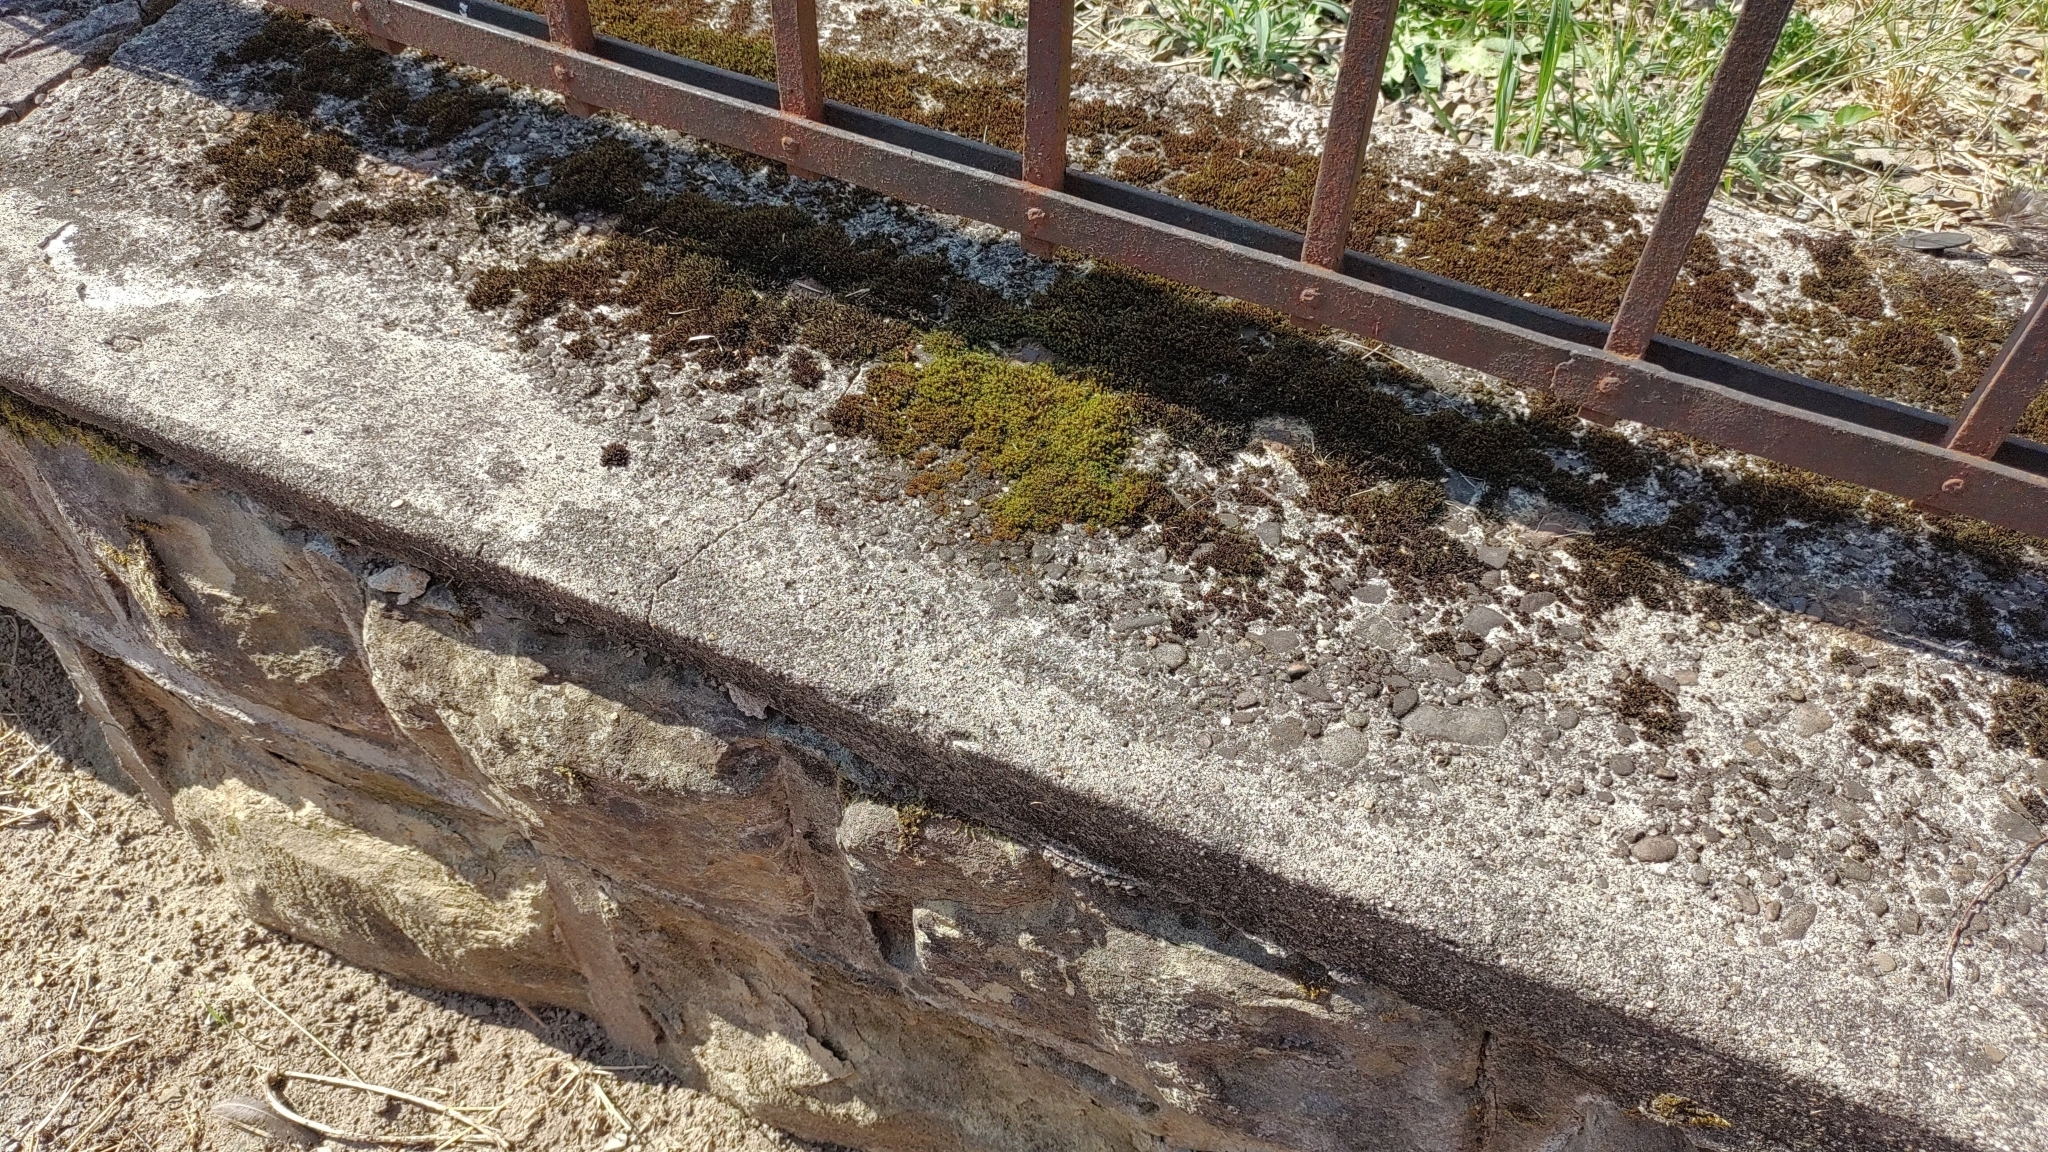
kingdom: Plantae
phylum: Bryophyta
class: Bryopsida
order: Dicranales
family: Ditrichaceae
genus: Ceratodon
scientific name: Ceratodon purpureus
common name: Redshank
